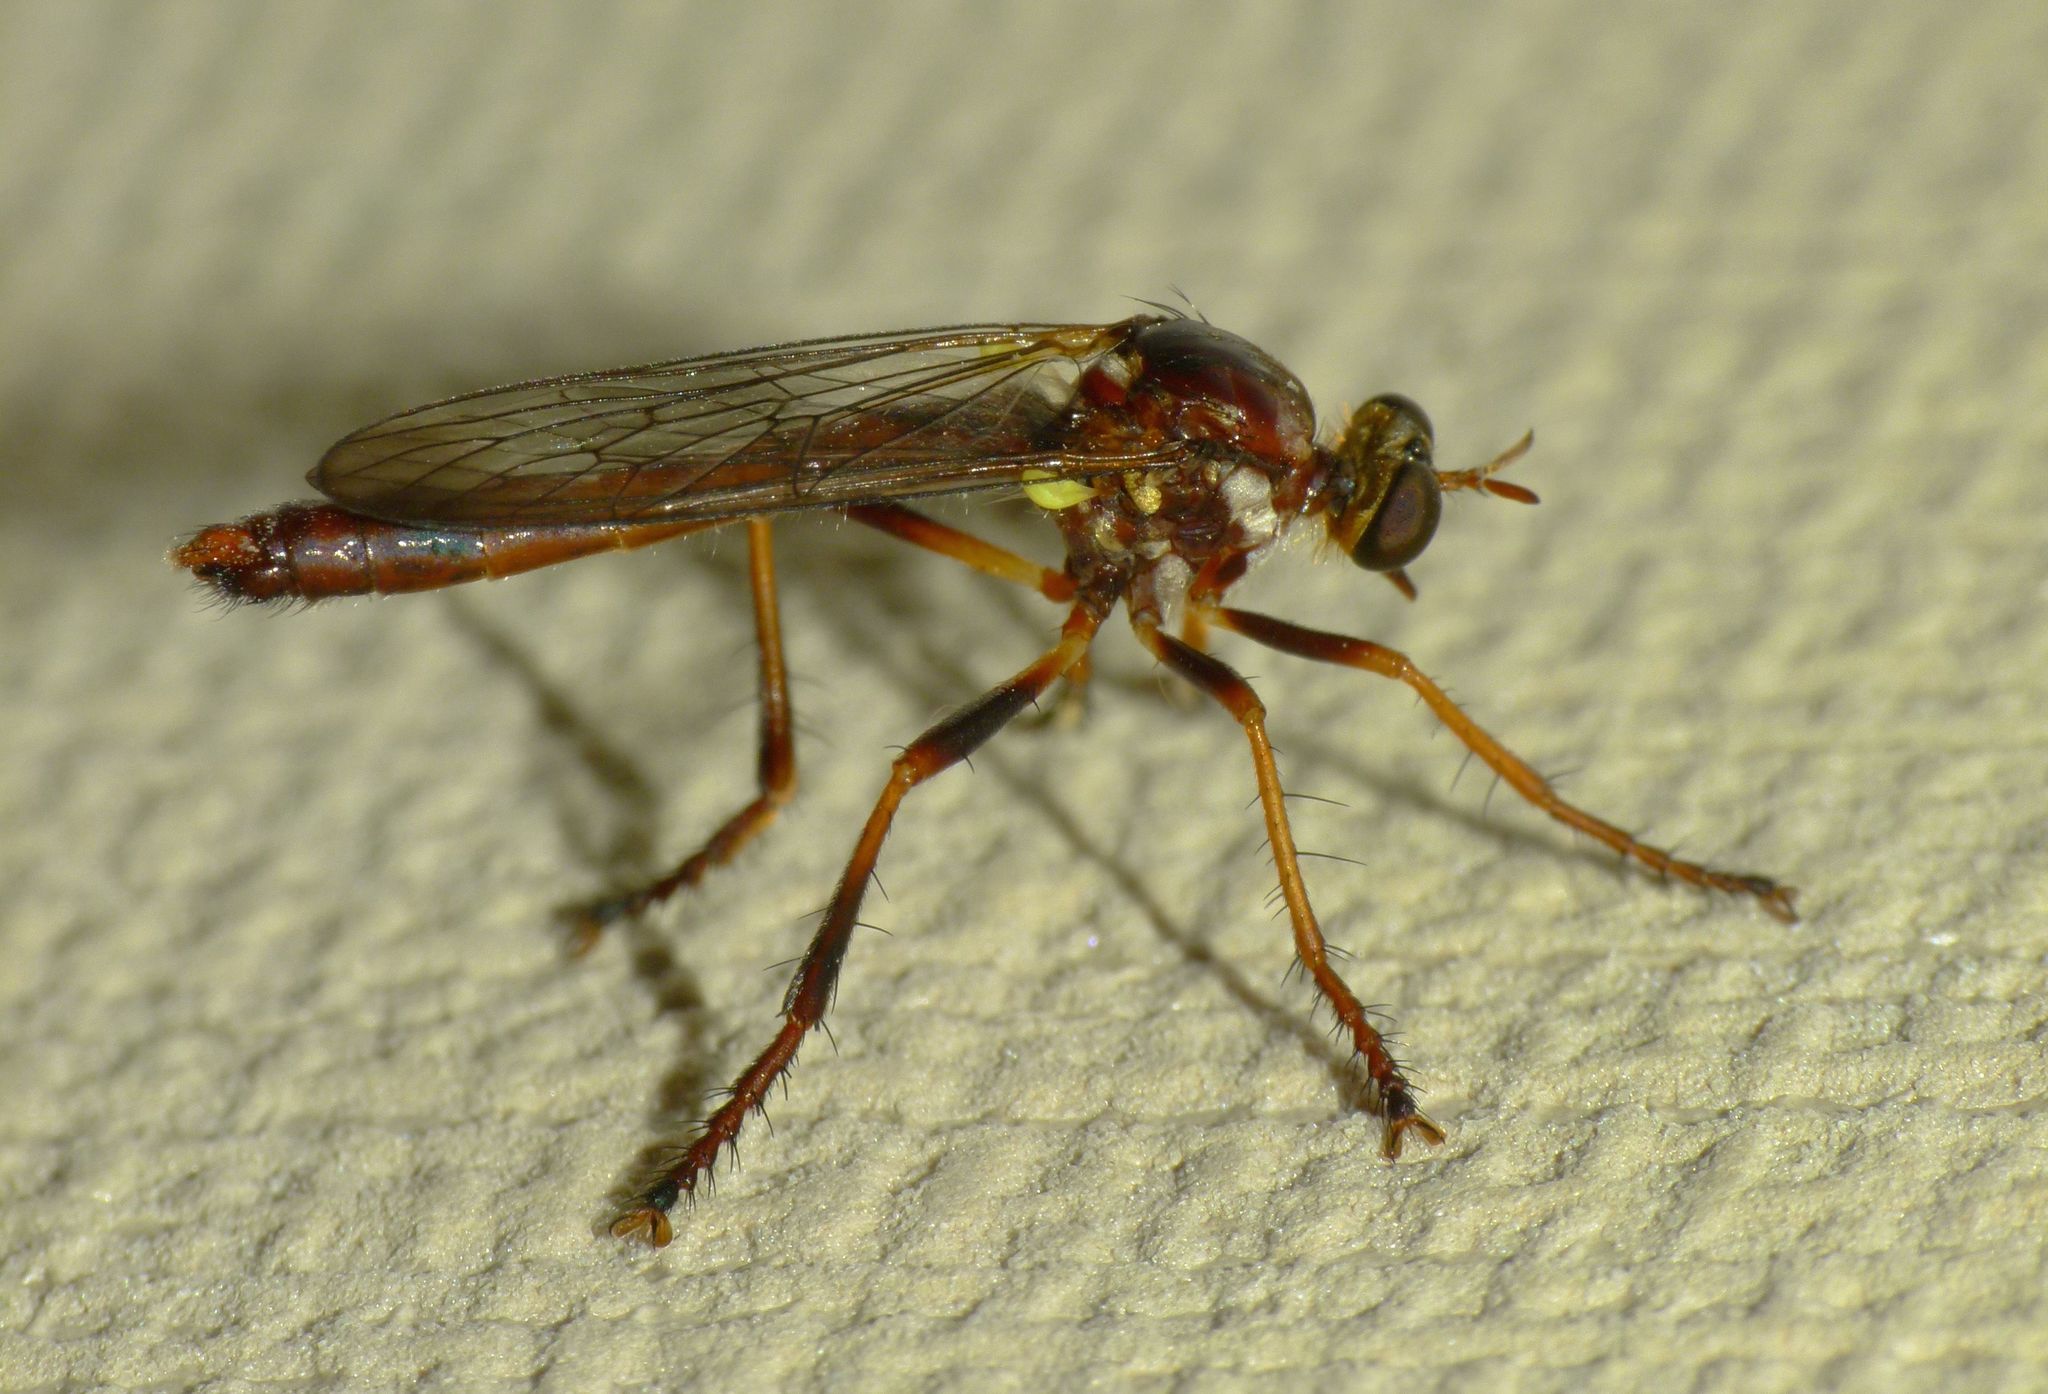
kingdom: Animalia
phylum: Arthropoda
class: Insecta
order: Diptera
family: Asilidae
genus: Saropogon
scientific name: Saropogon antipodus
